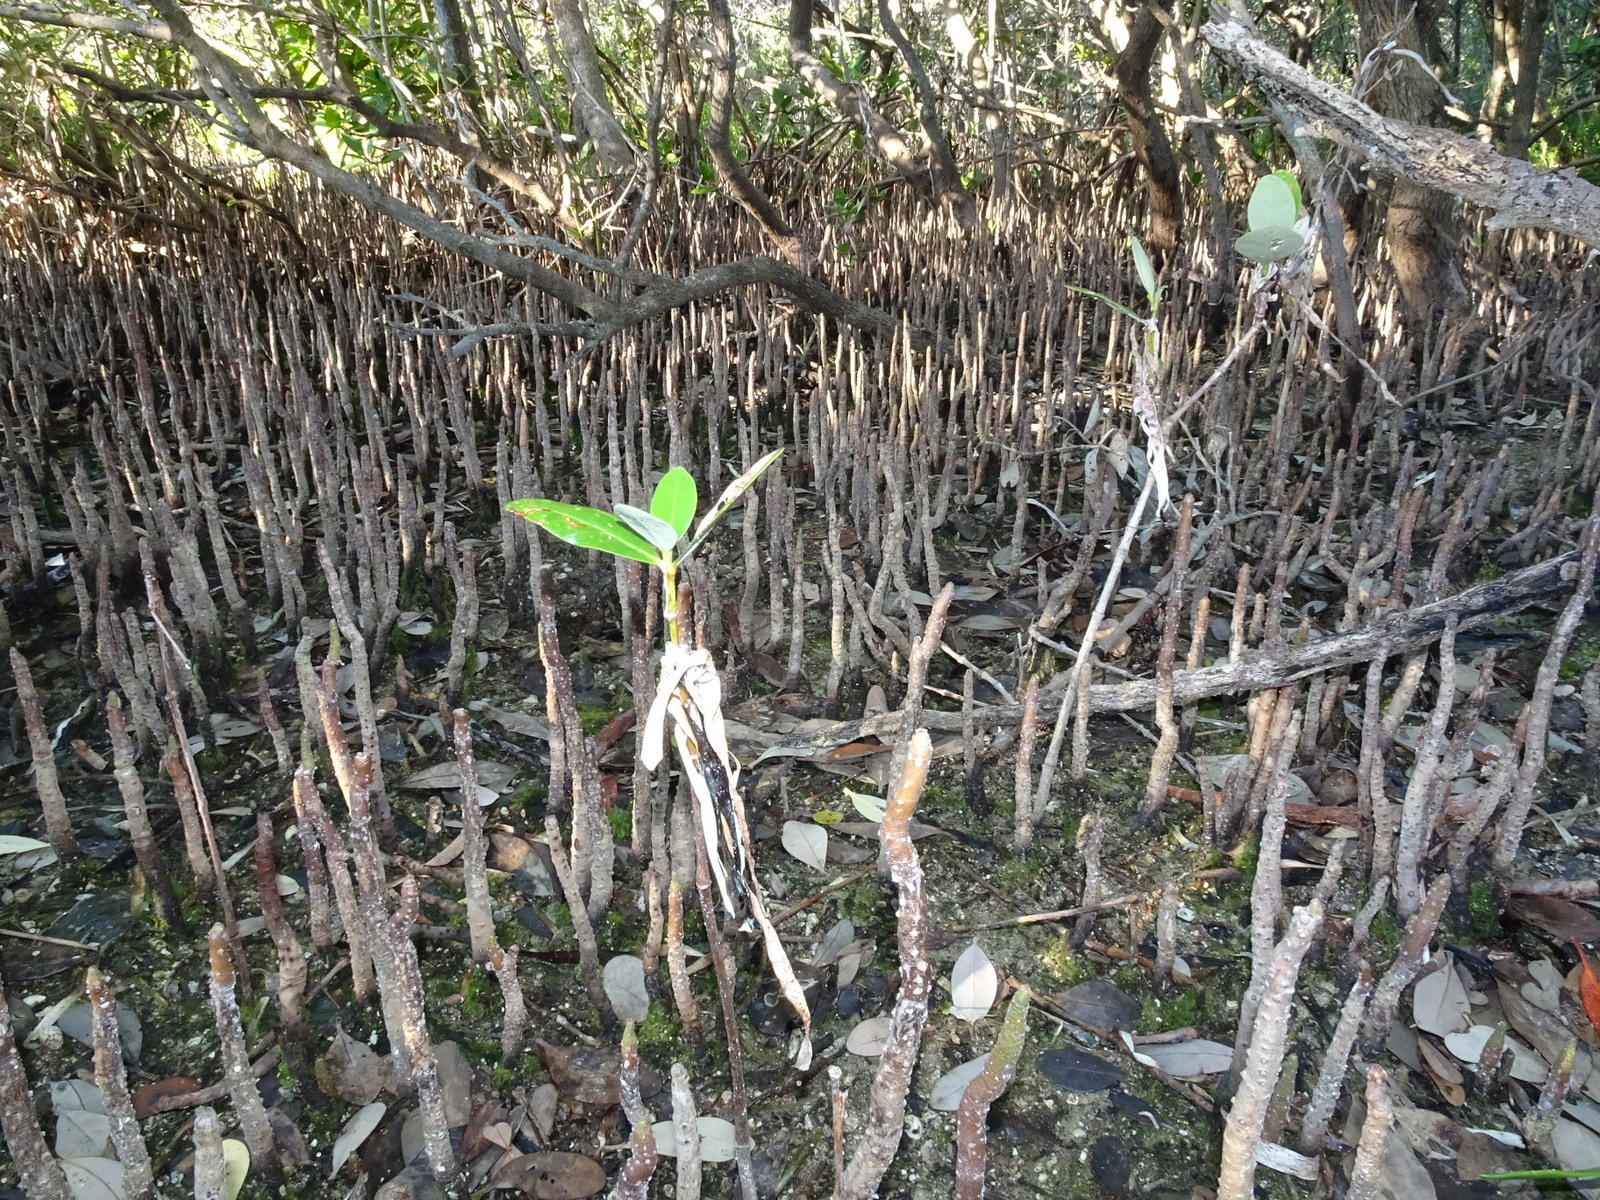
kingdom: Plantae
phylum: Tracheophyta
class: Magnoliopsida
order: Lamiales
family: Acanthaceae
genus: Avicennia
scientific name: Avicennia germinans
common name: Black mangrove
